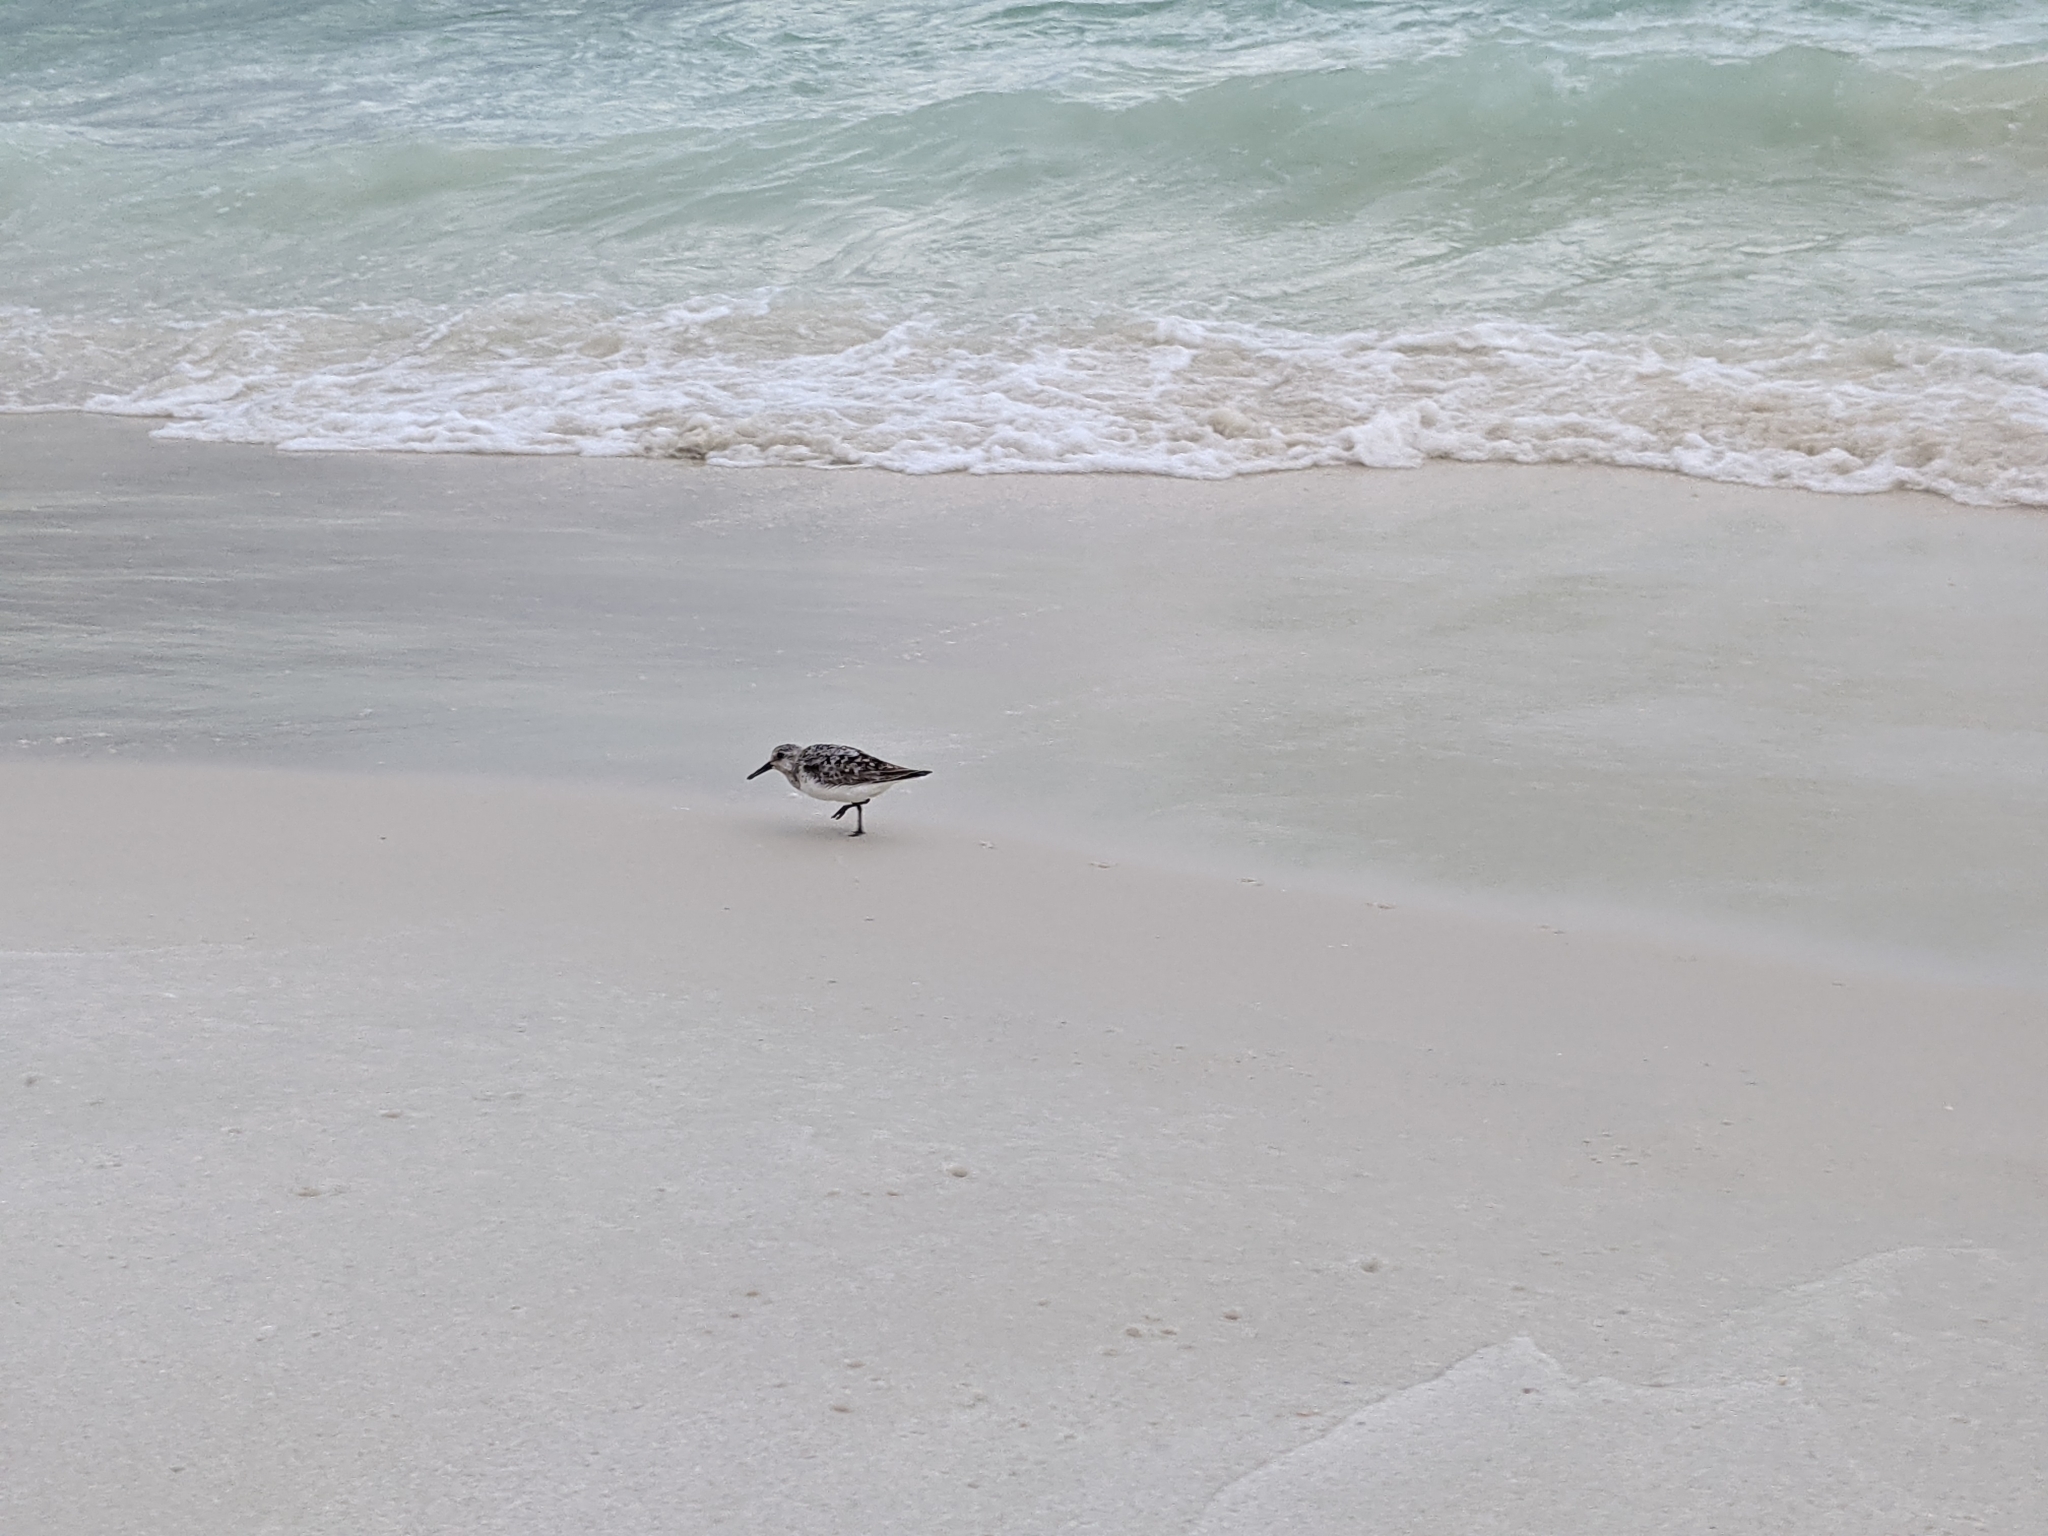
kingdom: Animalia
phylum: Chordata
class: Aves
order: Charadriiformes
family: Scolopacidae
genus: Calidris
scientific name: Calidris alba
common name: Sanderling
